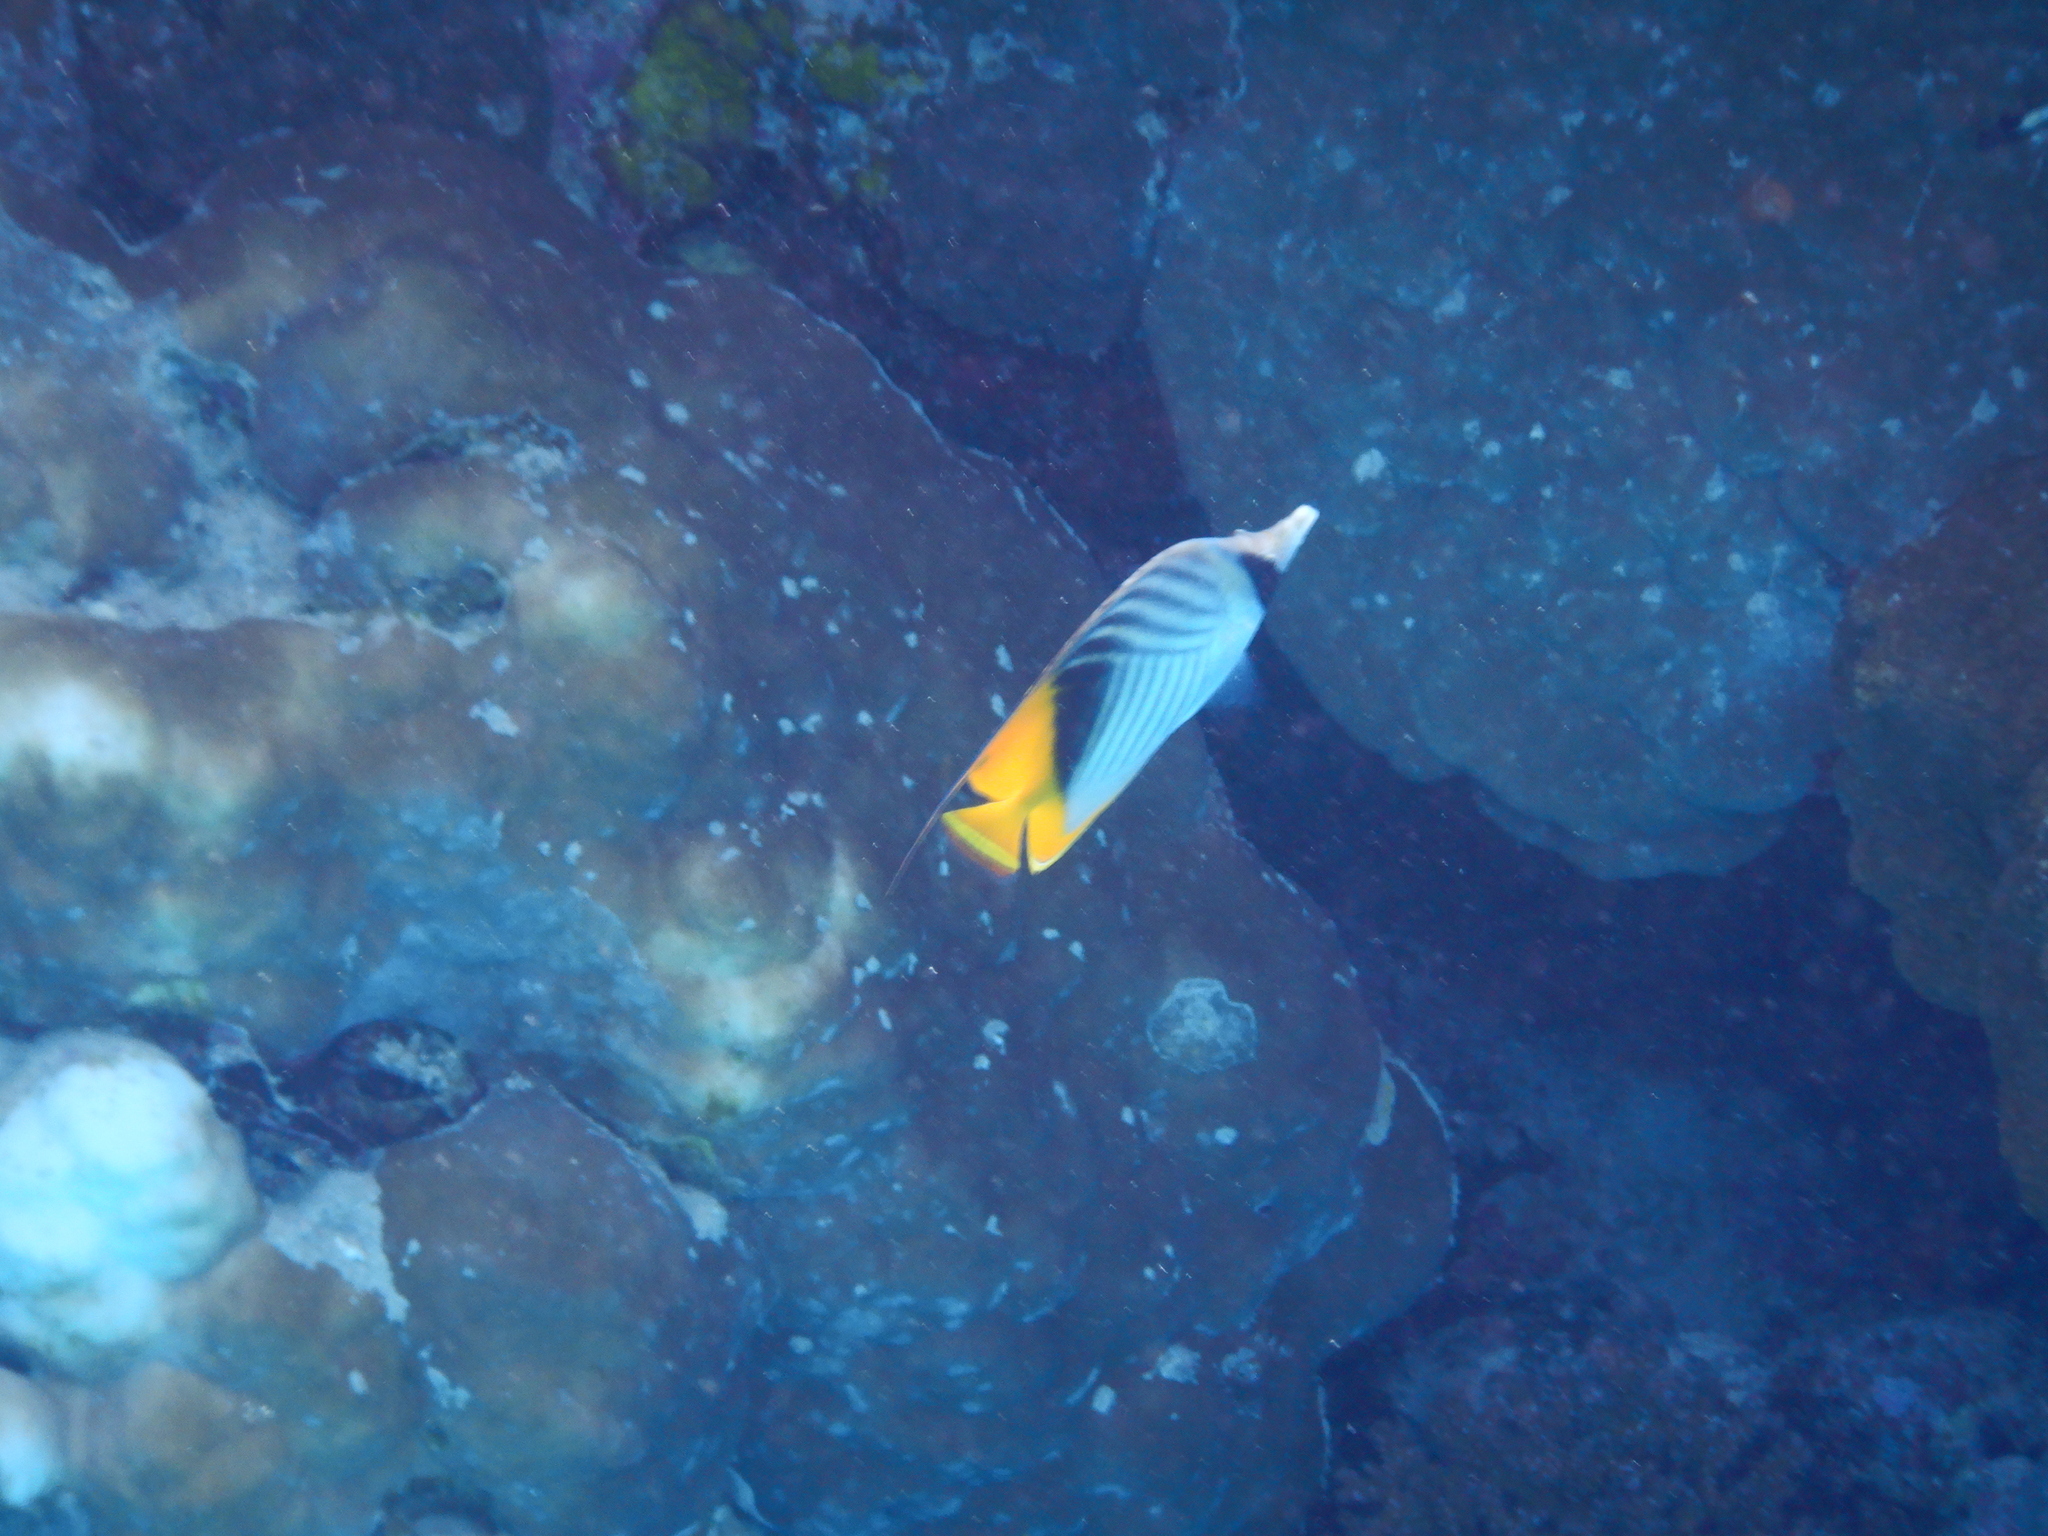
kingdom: Animalia
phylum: Chordata
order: Perciformes
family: Chaetodontidae
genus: Chaetodon
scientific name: Chaetodon auriga
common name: Threadfin butterflyfish
